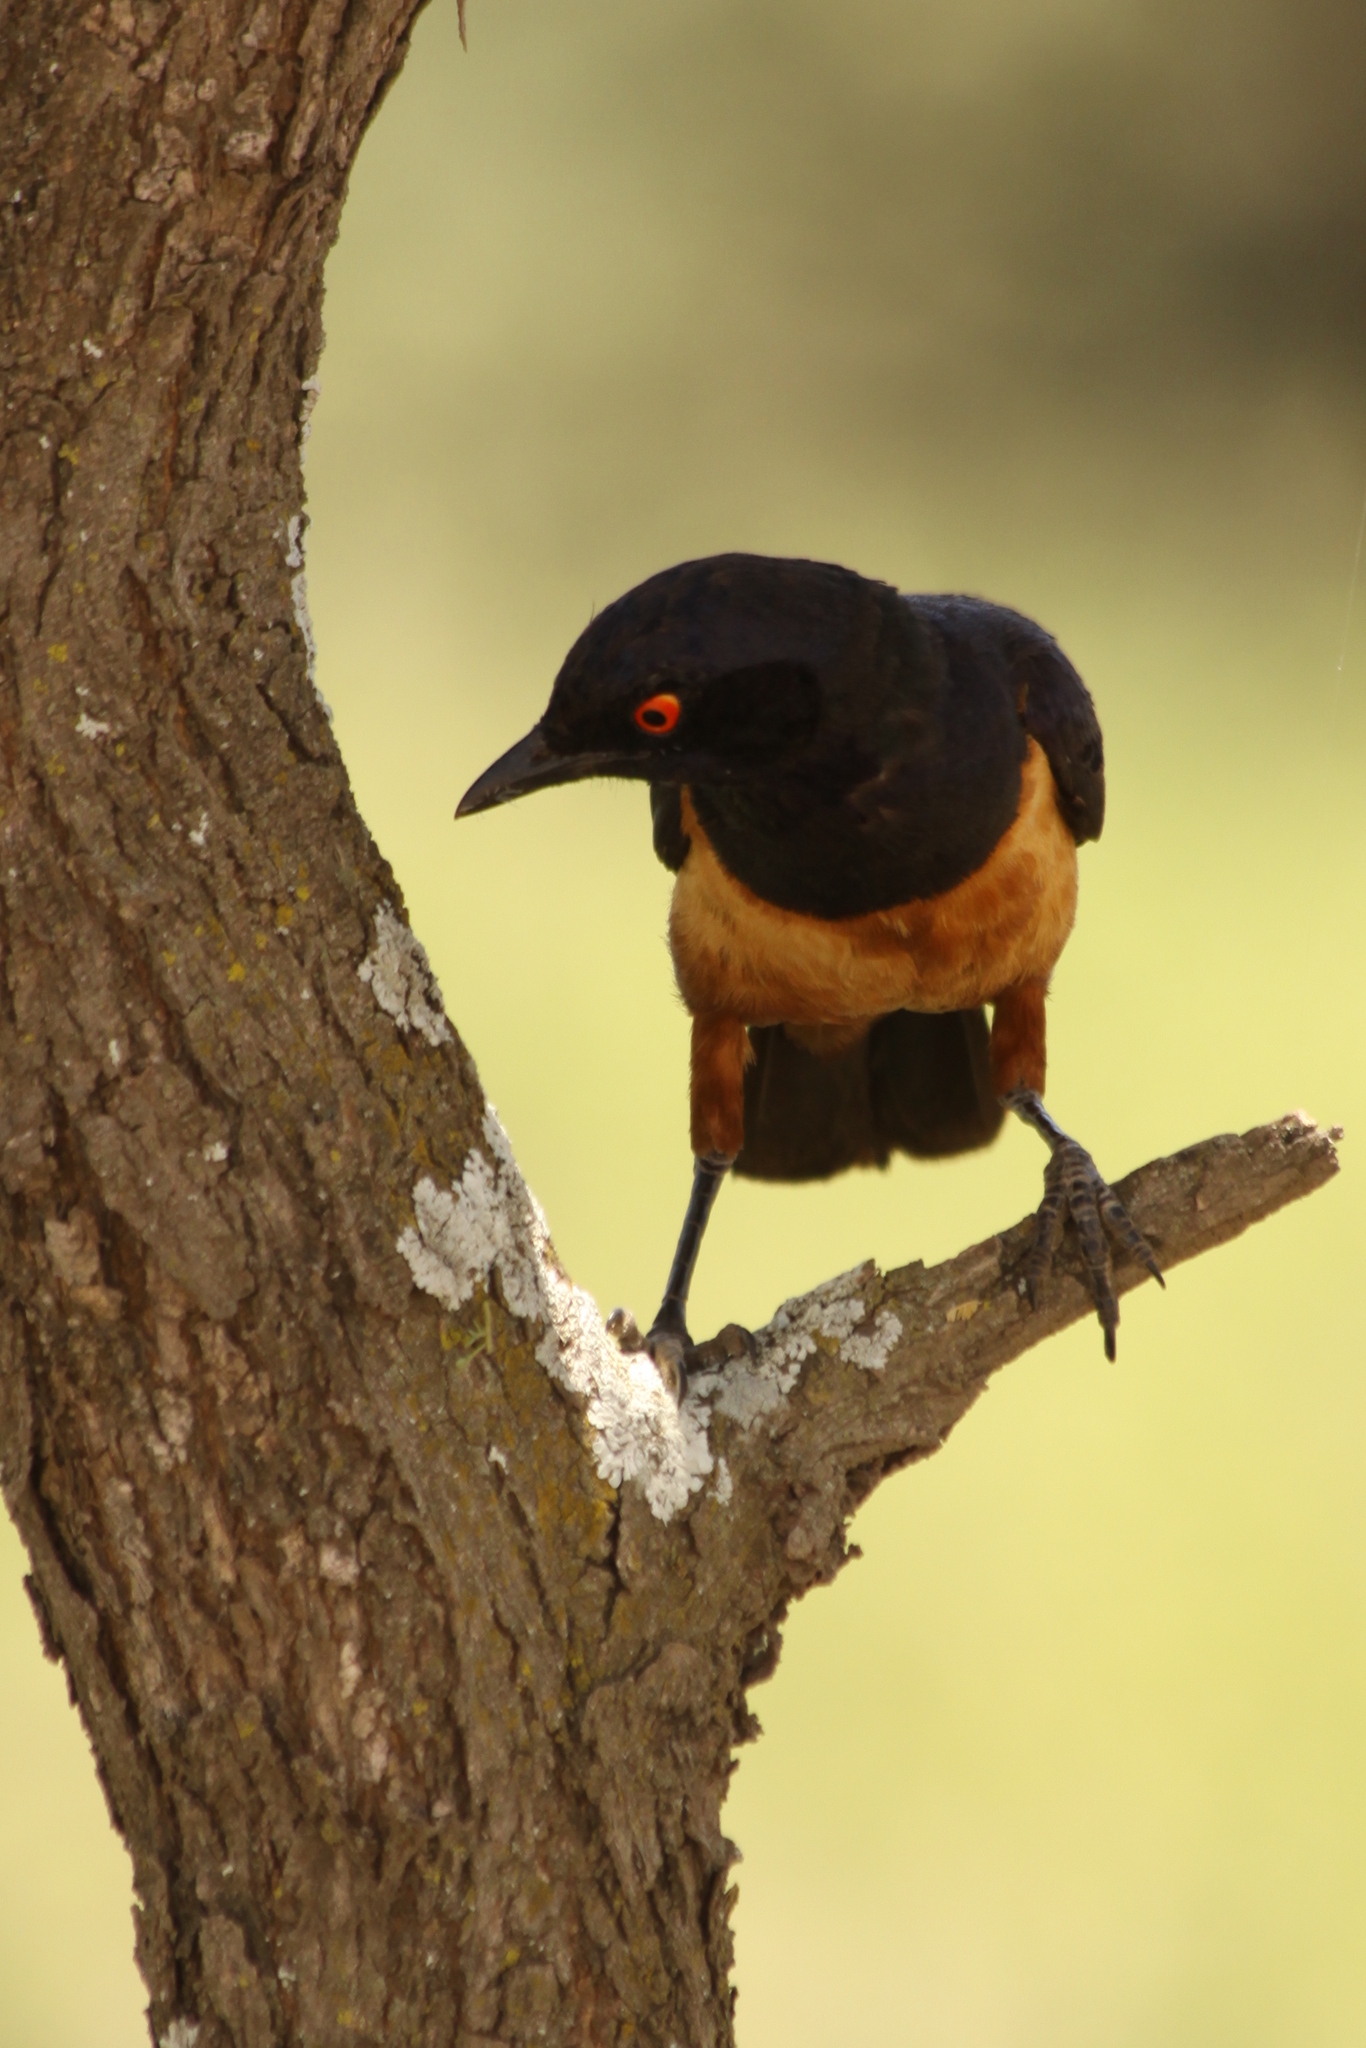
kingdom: Animalia
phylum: Chordata
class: Aves
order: Passeriformes
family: Sturnidae
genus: Lamprotornis
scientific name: Lamprotornis hildebrandti
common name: Hildebrandt's starling
